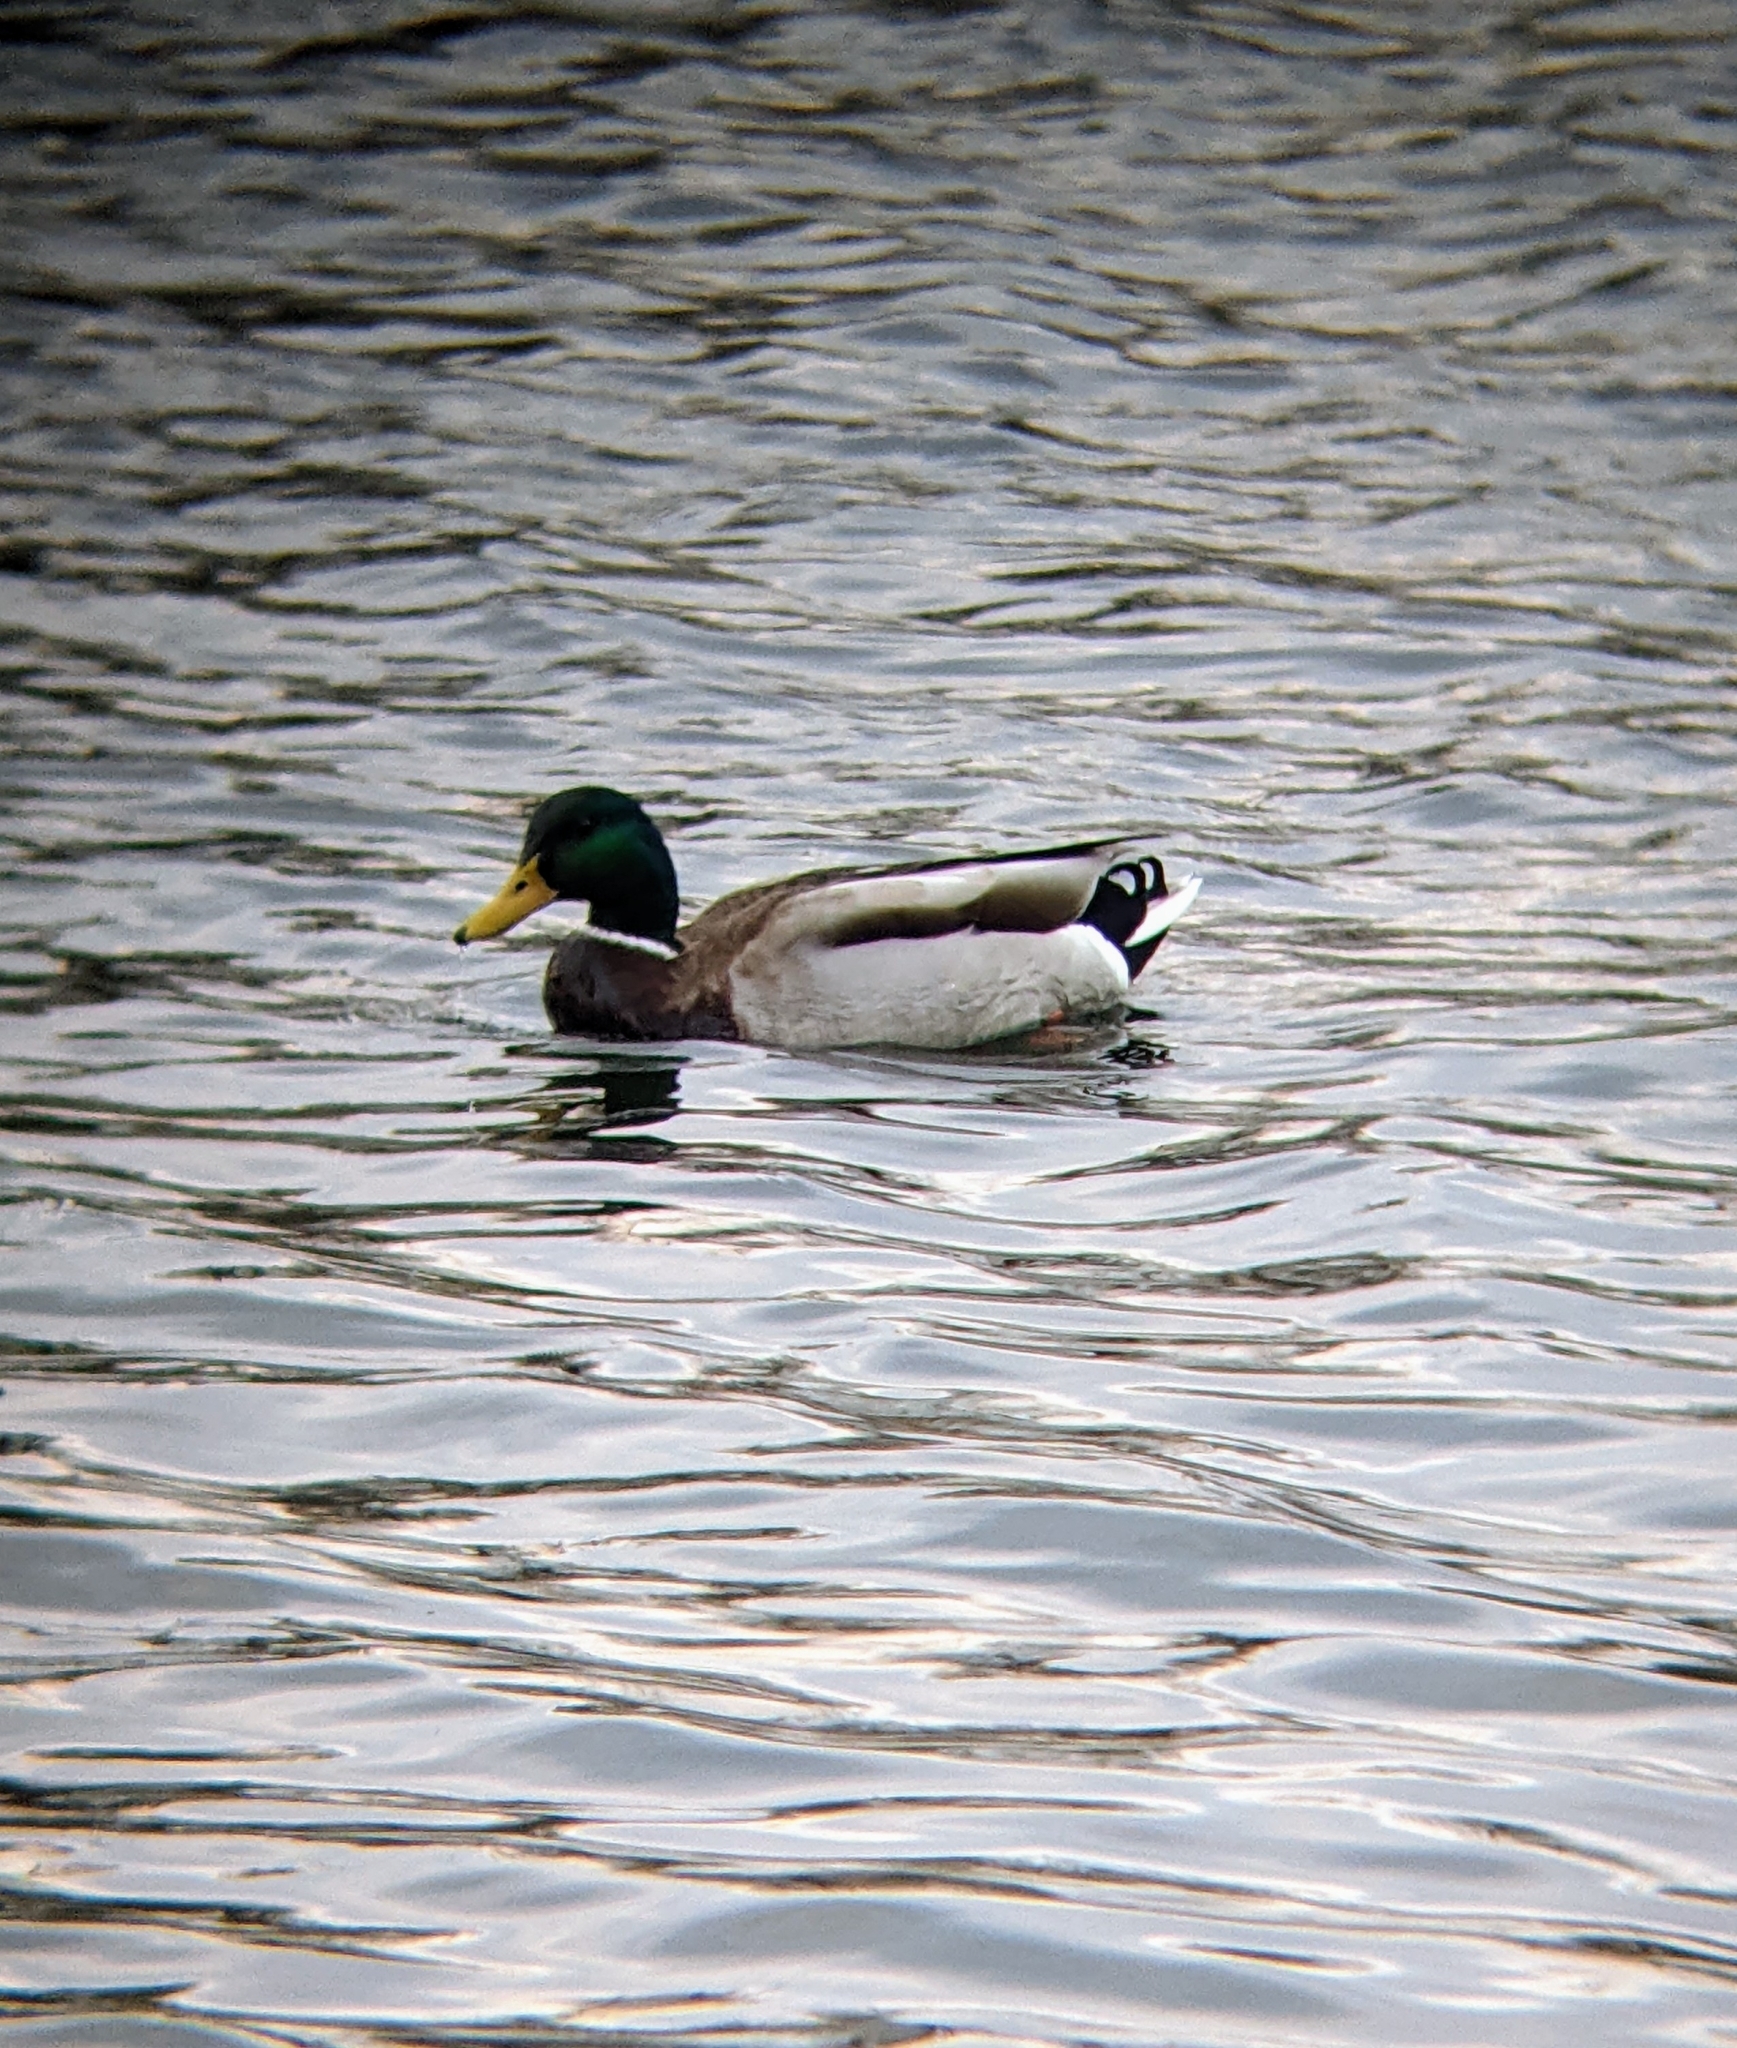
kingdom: Animalia
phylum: Chordata
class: Aves
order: Anseriformes
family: Anatidae
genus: Anas
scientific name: Anas platyrhynchos
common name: Mallard
